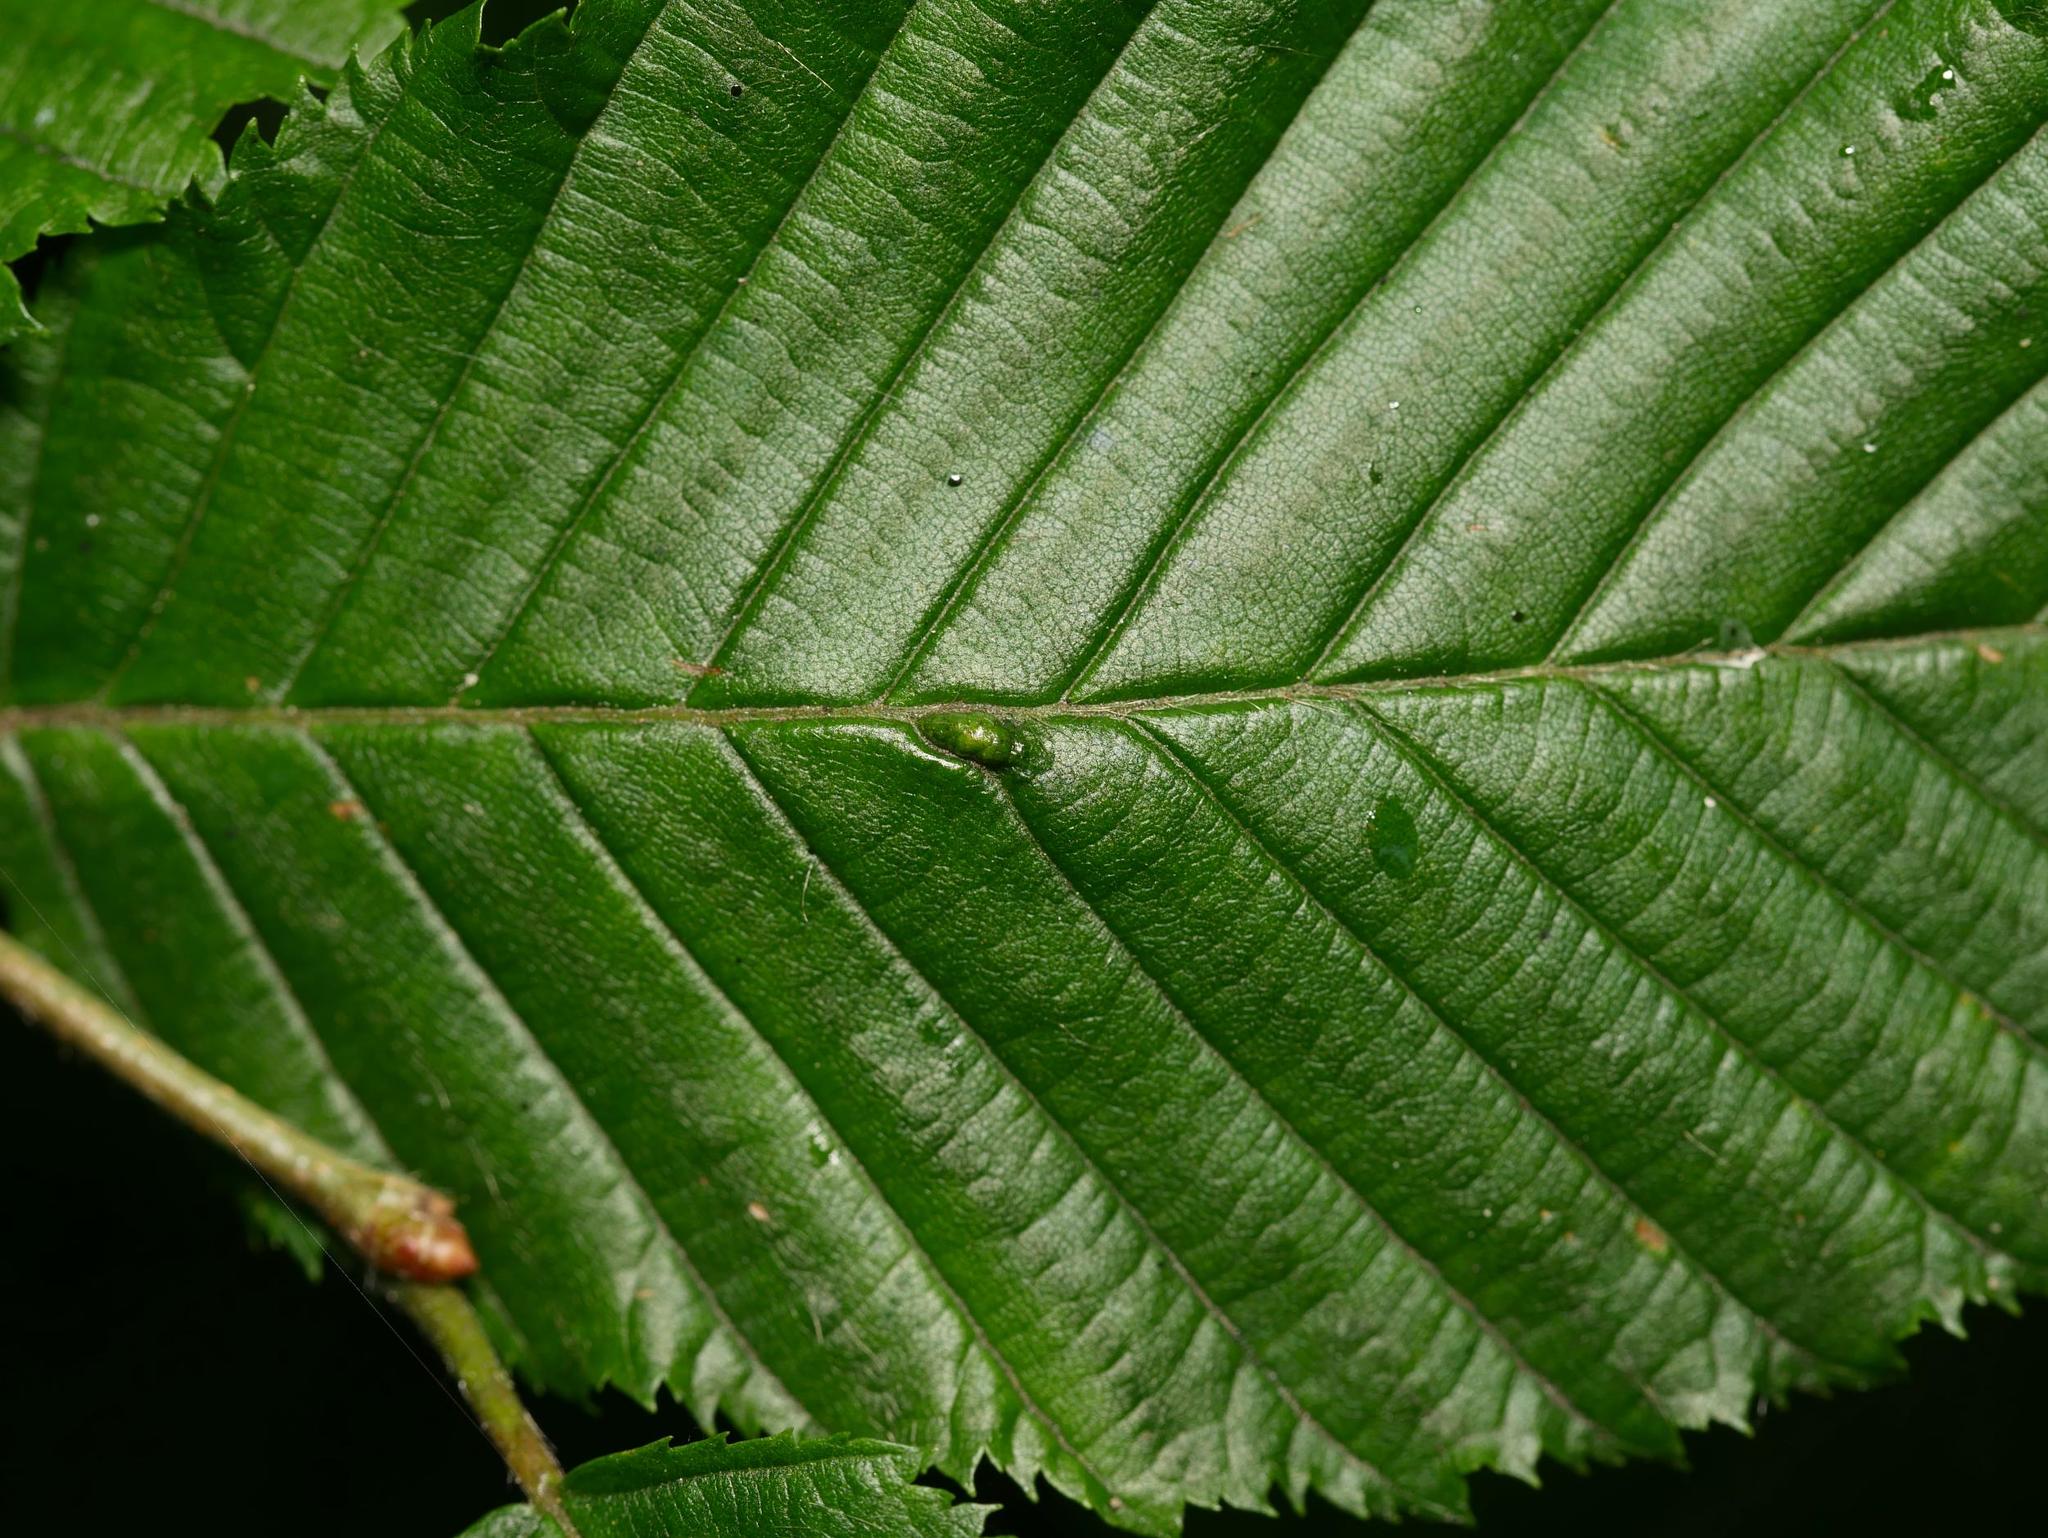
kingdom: Animalia
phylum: Arthropoda
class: Arachnida
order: Trombidiformes
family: Eriophyidae
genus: Aceria
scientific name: Aceria tenellus
